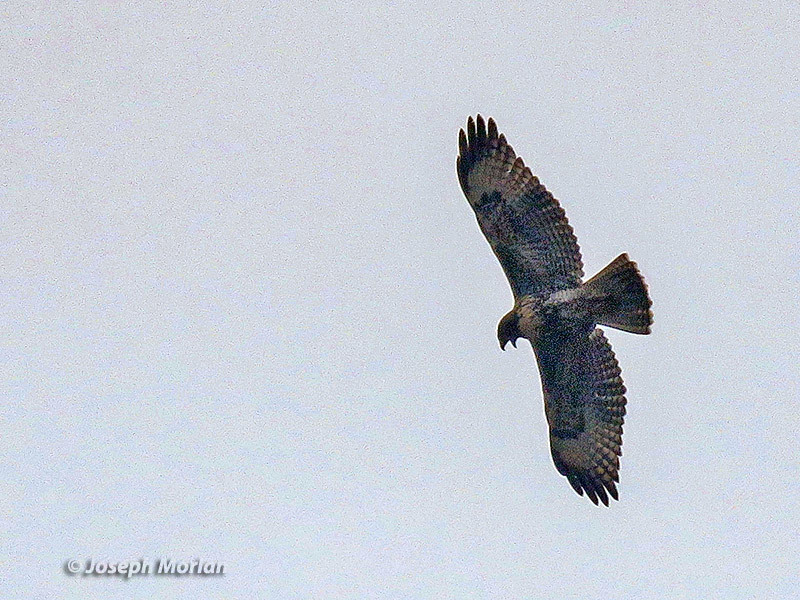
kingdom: Animalia
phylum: Chordata
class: Aves
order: Accipitriformes
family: Accipitridae
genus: Buteo
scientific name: Buteo jamaicensis
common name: Red-tailed hawk
